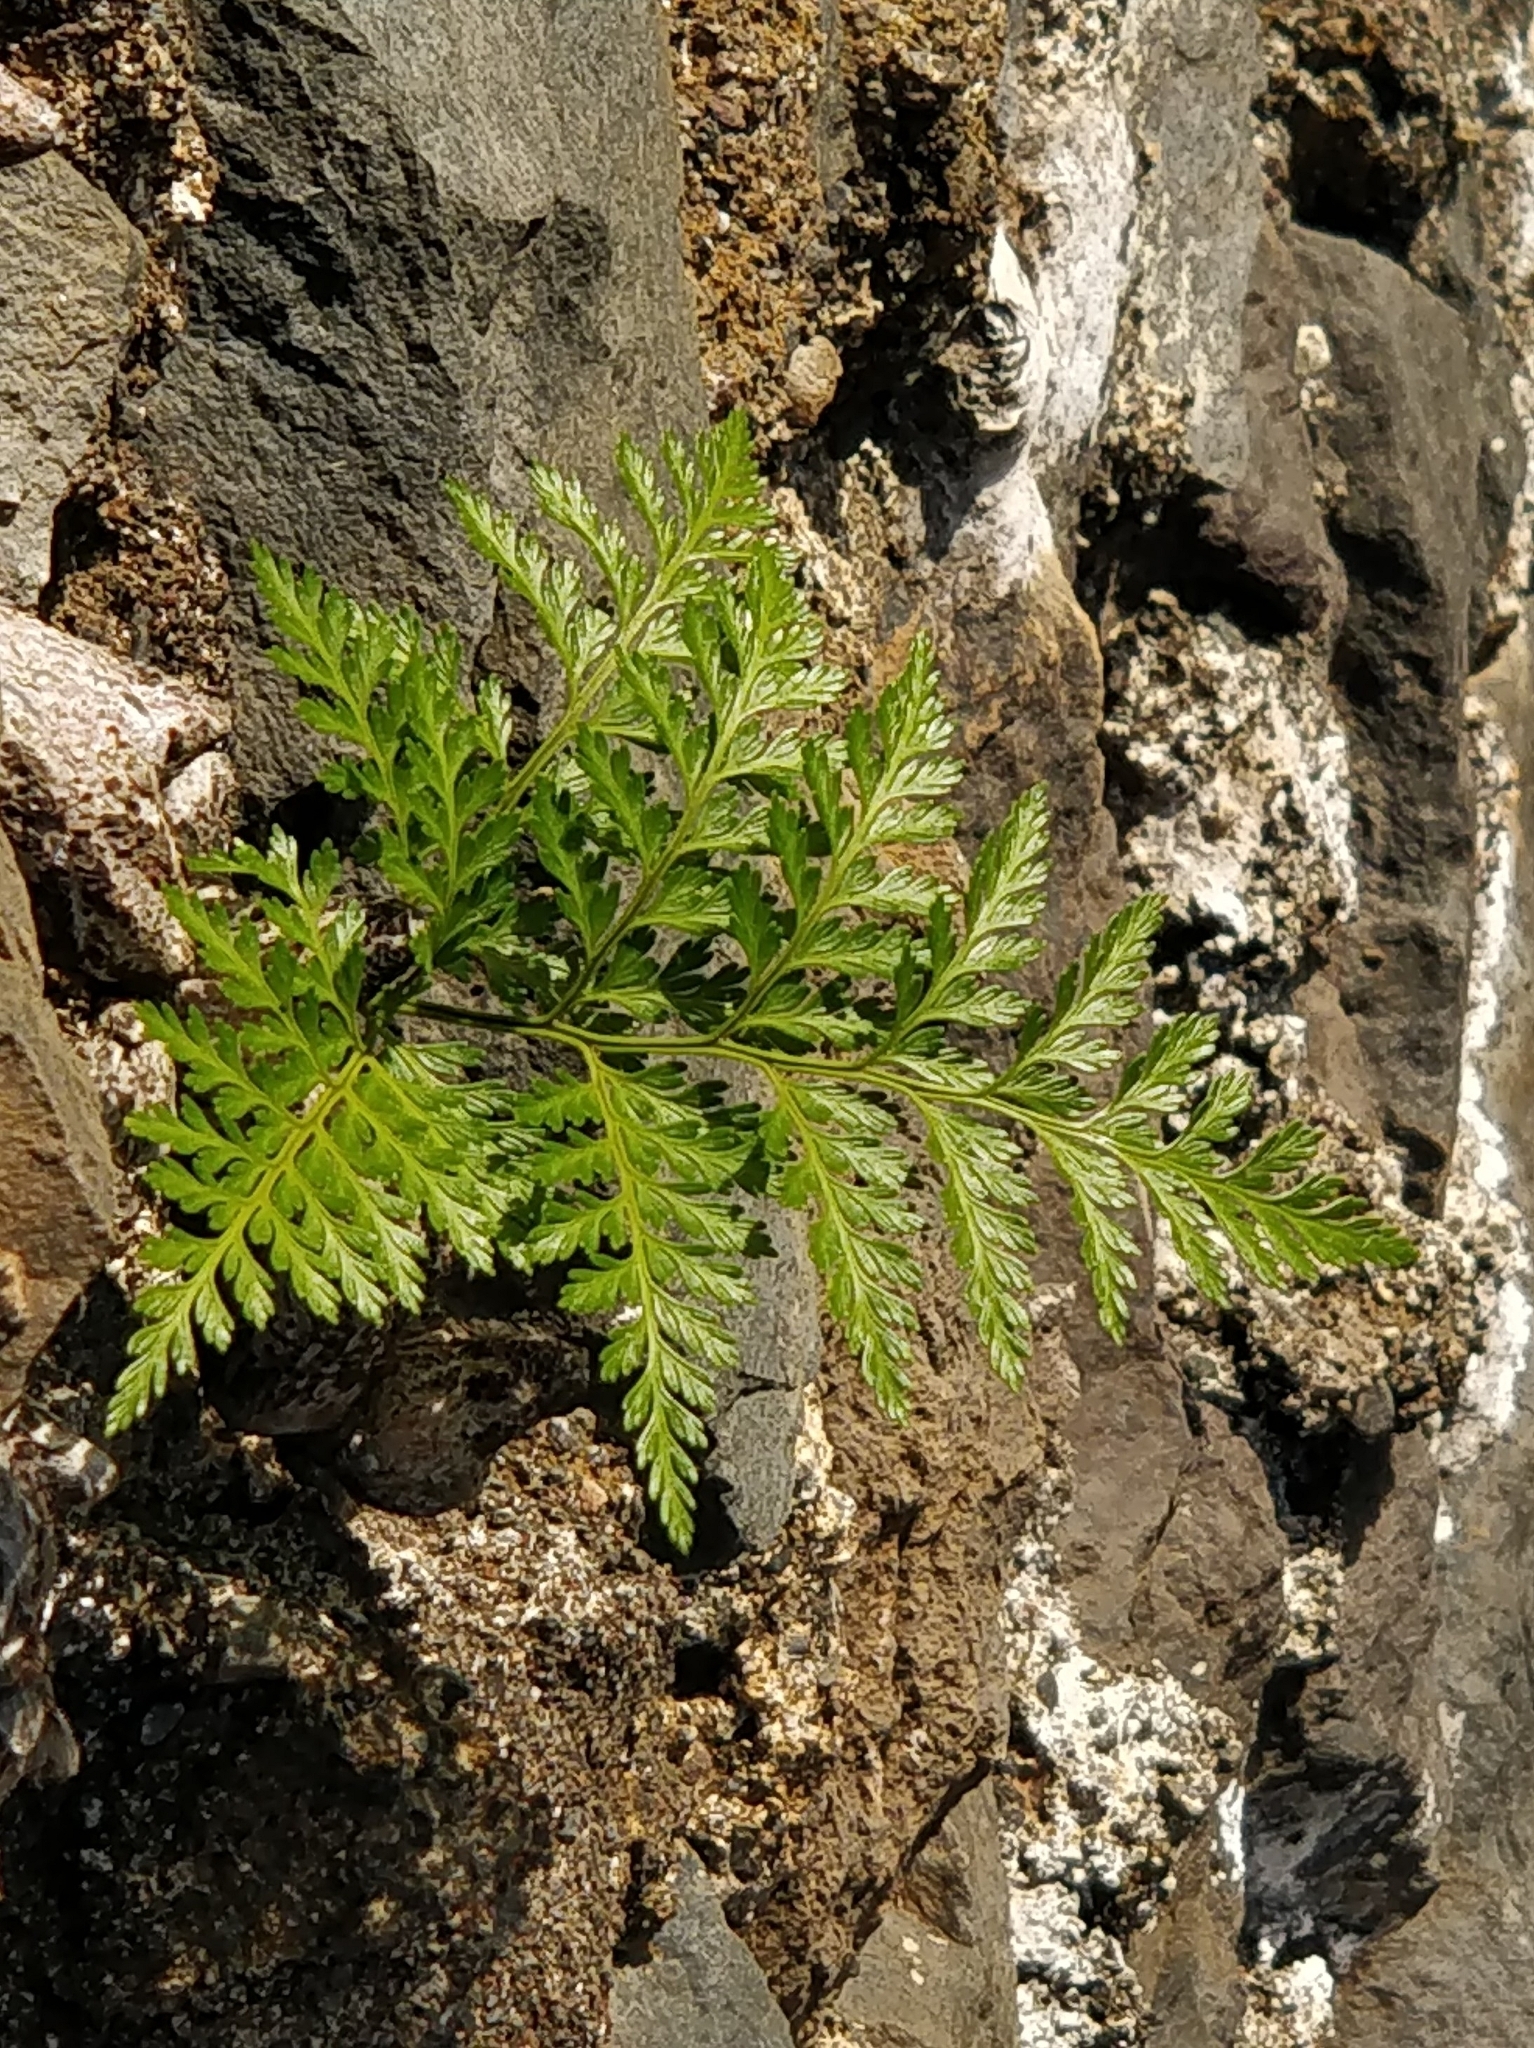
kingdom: Plantae
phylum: Tracheophyta
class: Polypodiopsida
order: Polypodiales
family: Davalliaceae
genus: Davallia
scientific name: Davallia canariensis
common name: Hare's-foot fern
